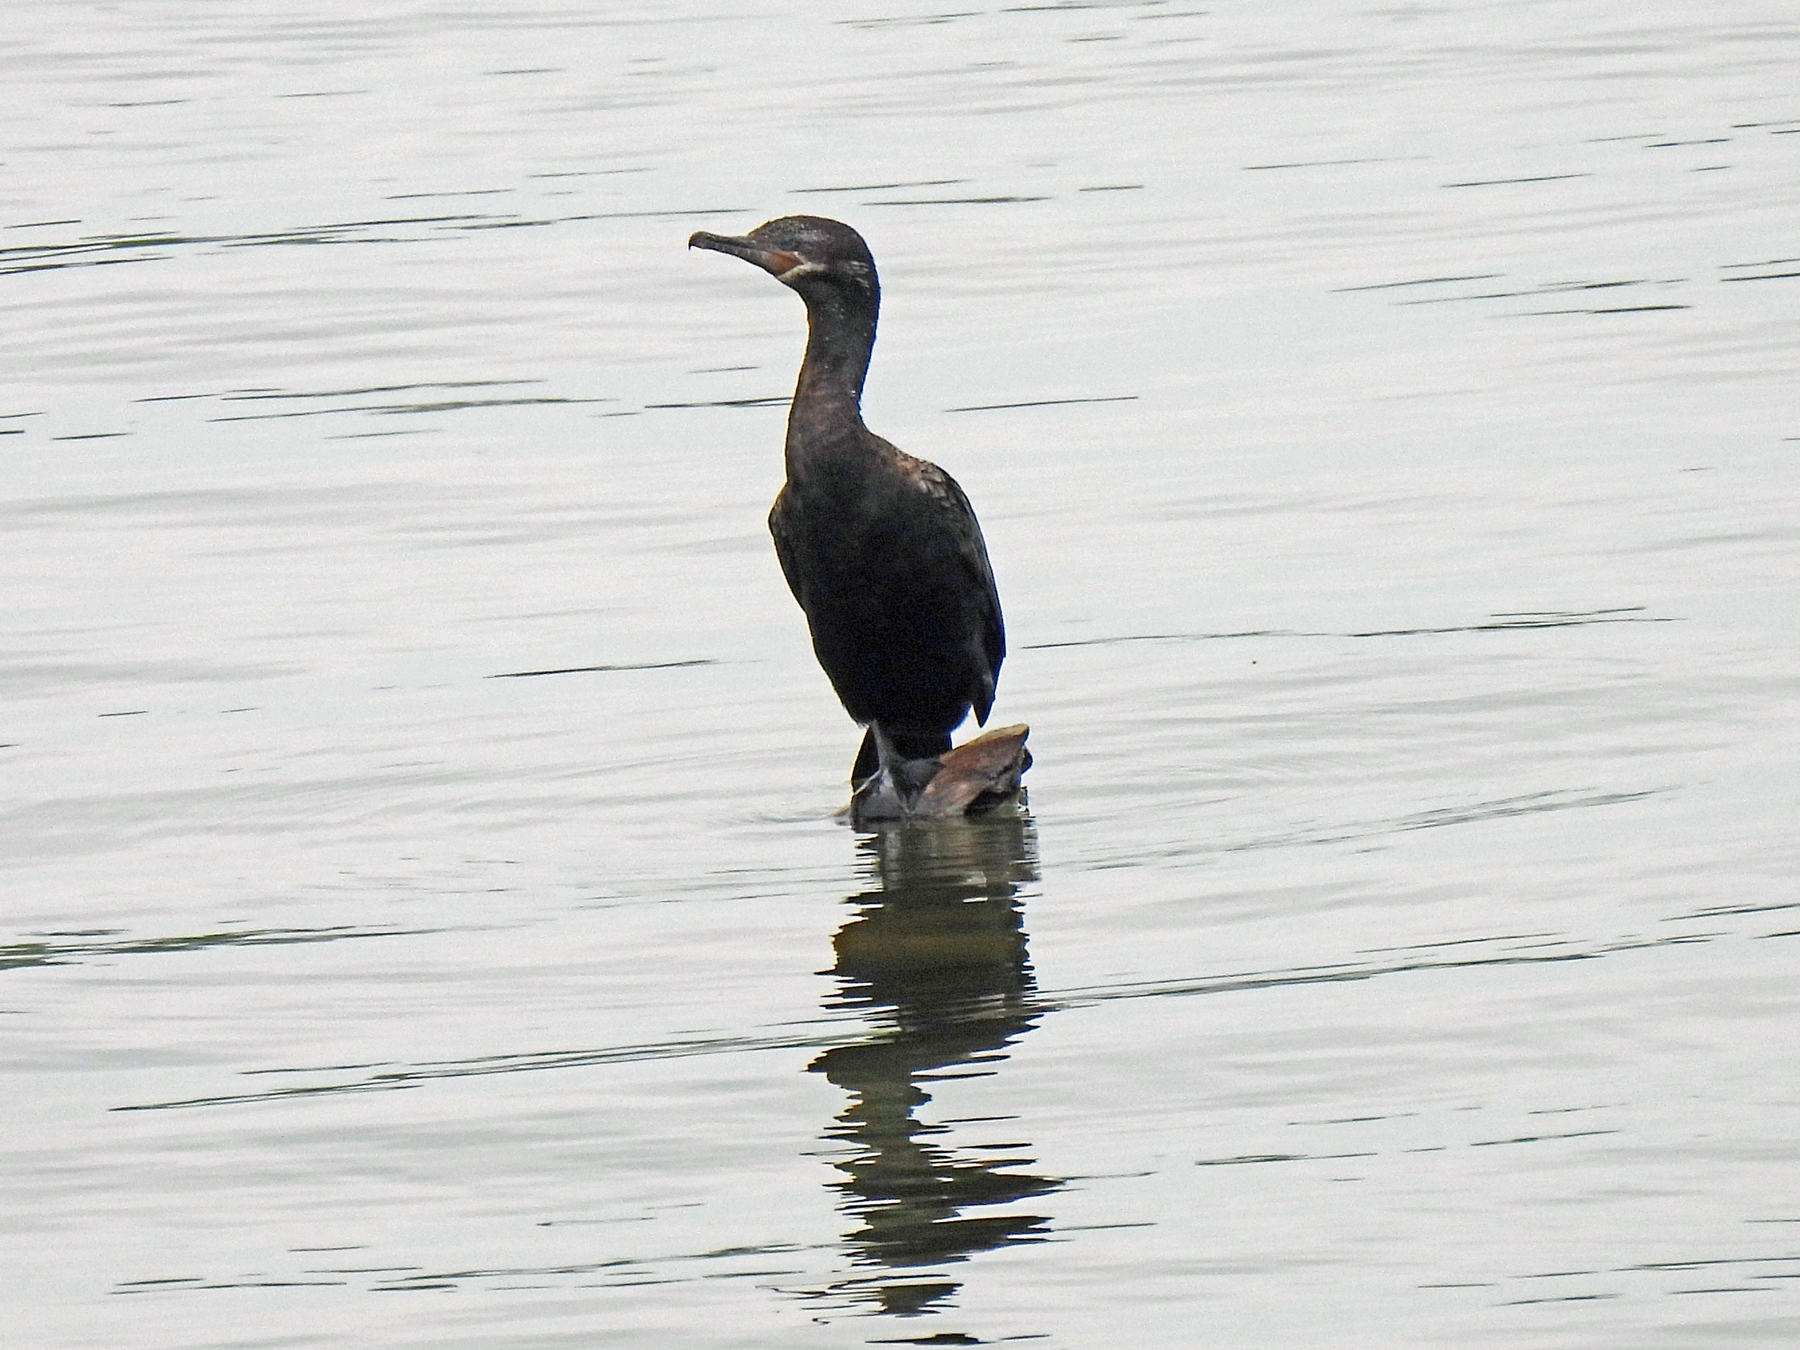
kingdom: Animalia
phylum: Chordata
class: Aves
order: Suliformes
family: Phalacrocoracidae
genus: Phalacrocorax
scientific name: Phalacrocorax brasilianus
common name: Neotropic cormorant
